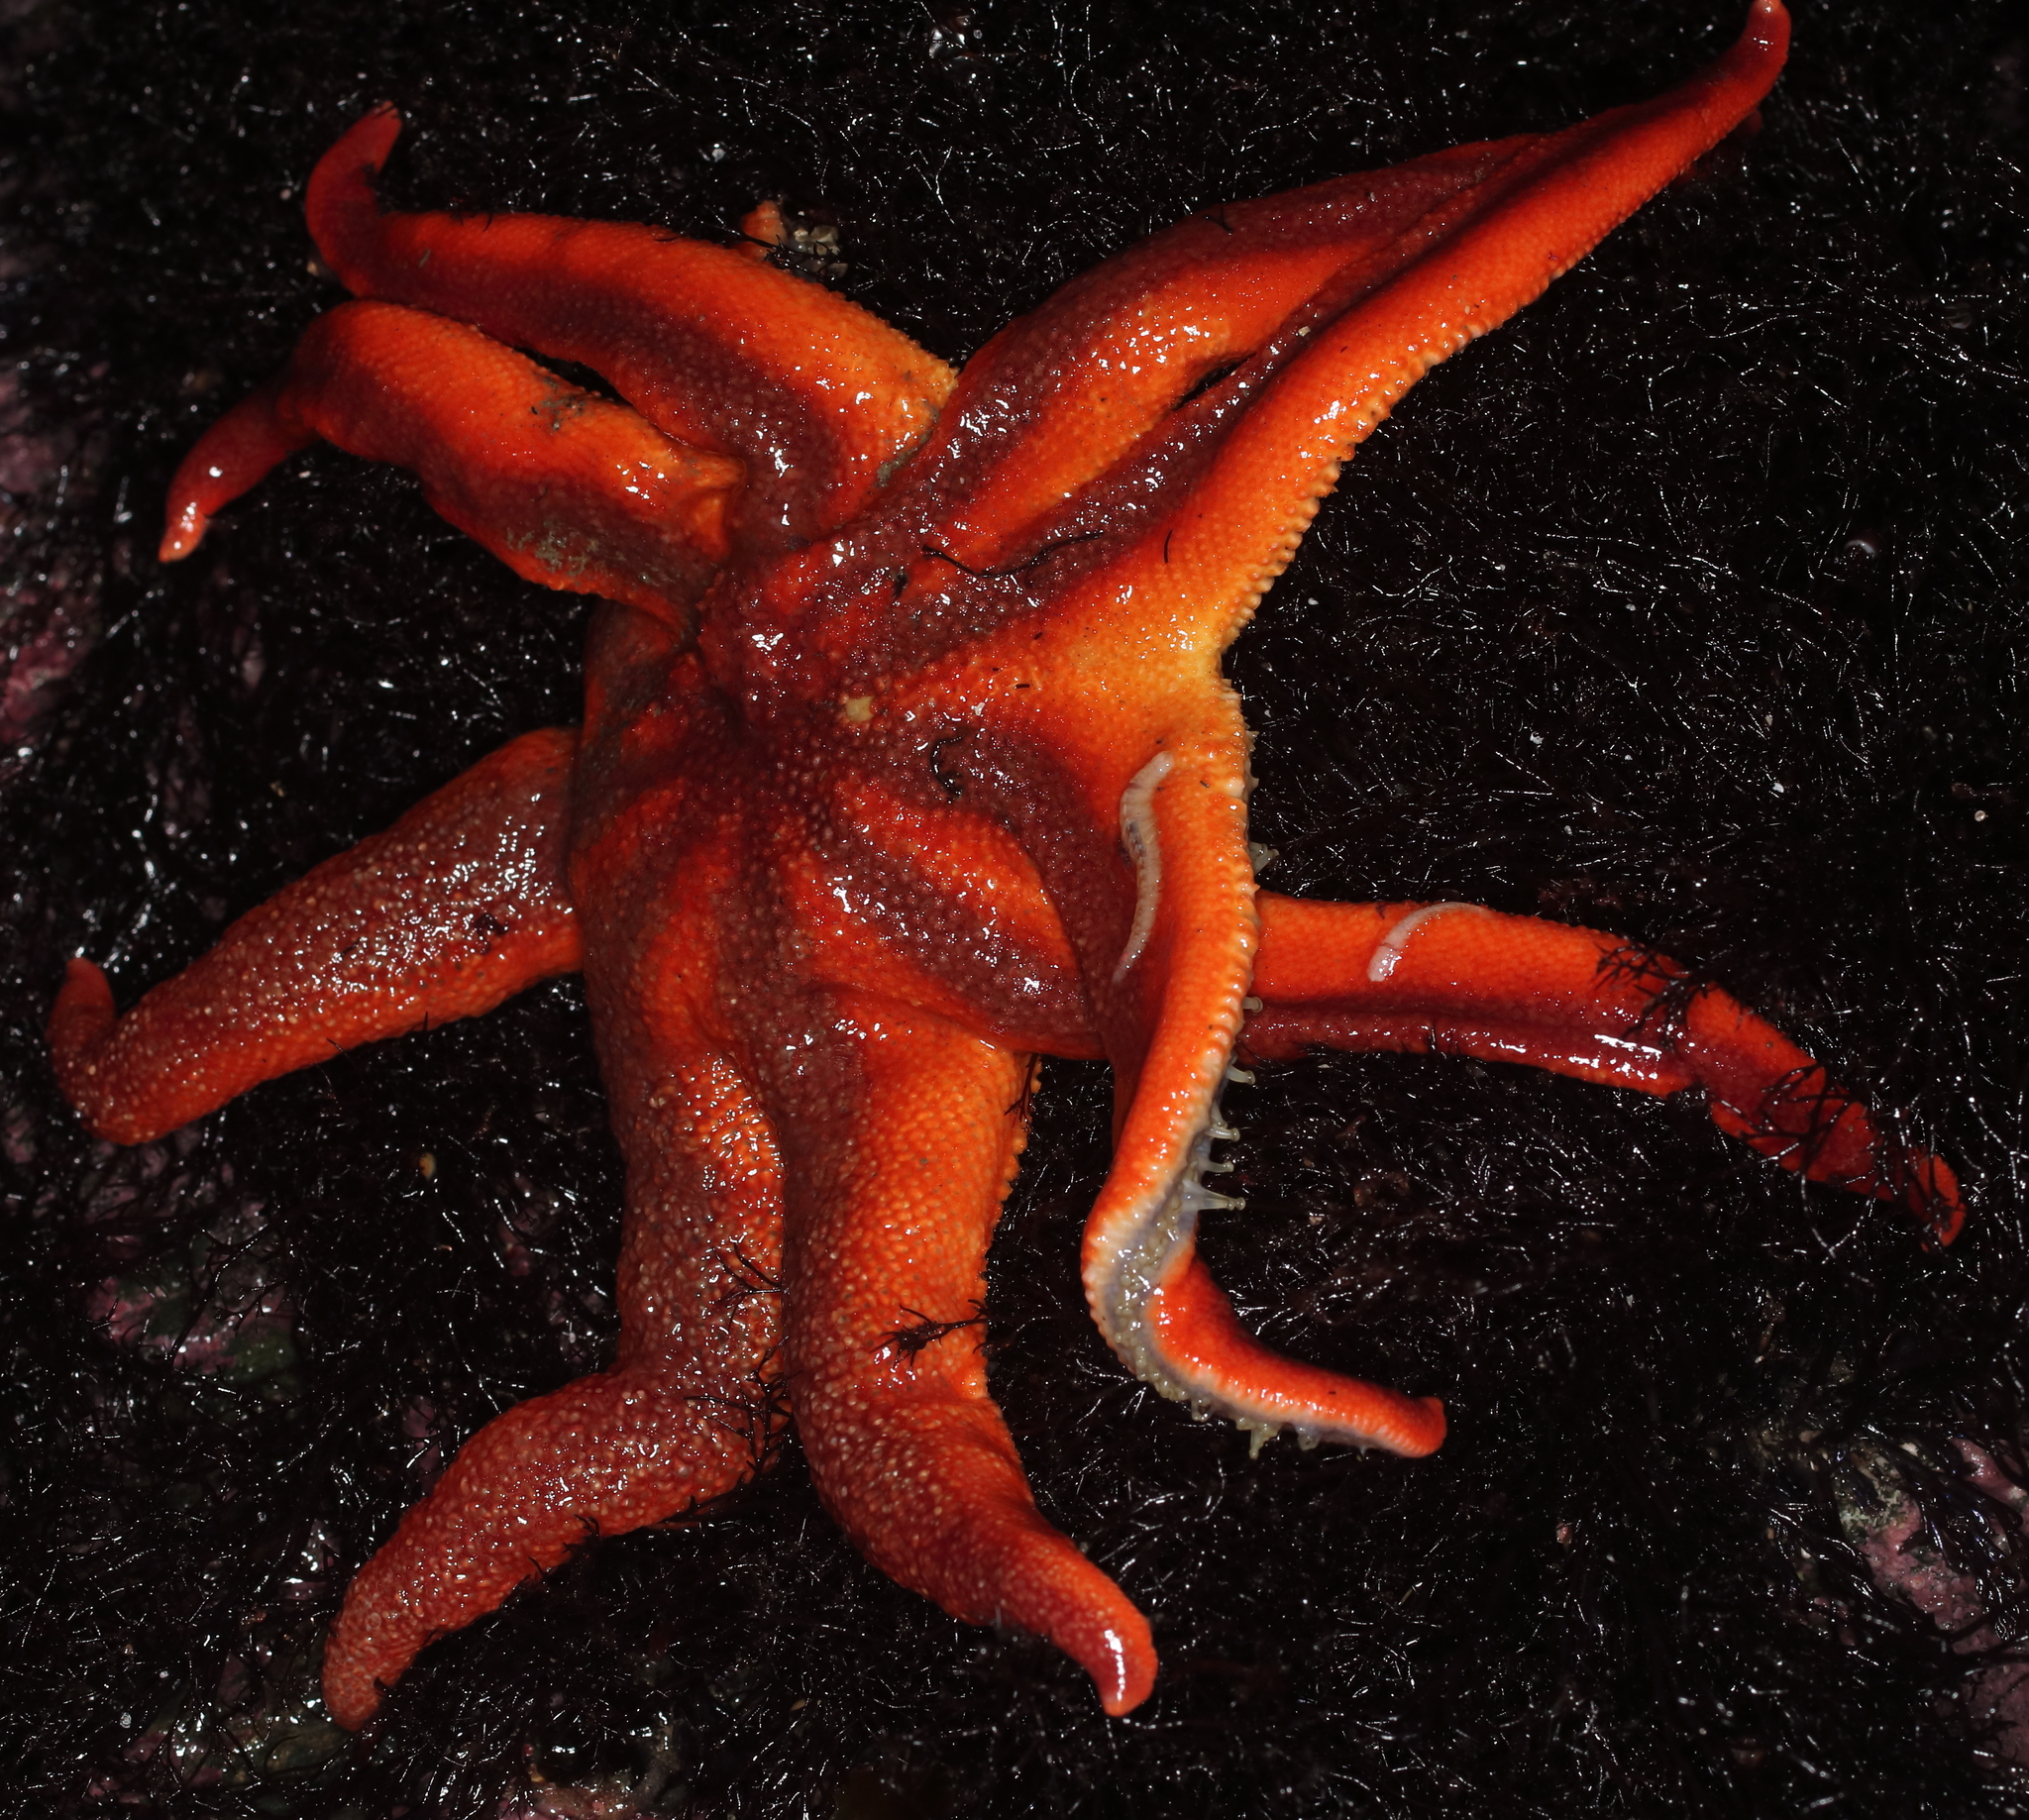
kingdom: Animalia
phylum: Echinodermata
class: Asteroidea
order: Valvatida
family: Solasteridae
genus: Solaster
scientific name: Solaster stimpsoni
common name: Orange sun star
